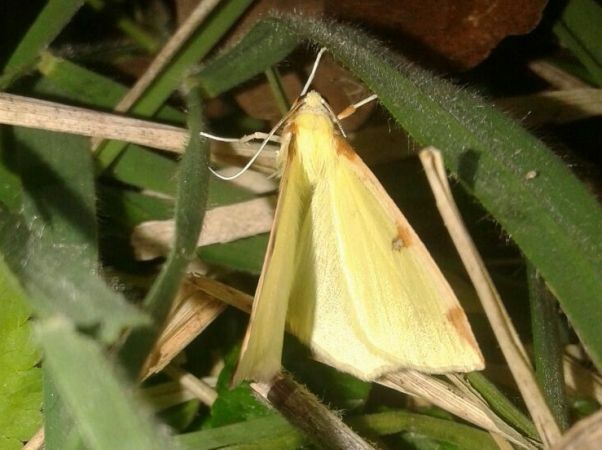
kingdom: Animalia
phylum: Arthropoda
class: Insecta
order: Lepidoptera
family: Geometridae
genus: Opisthograptis
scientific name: Opisthograptis luteolata
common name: Brimstone moth
